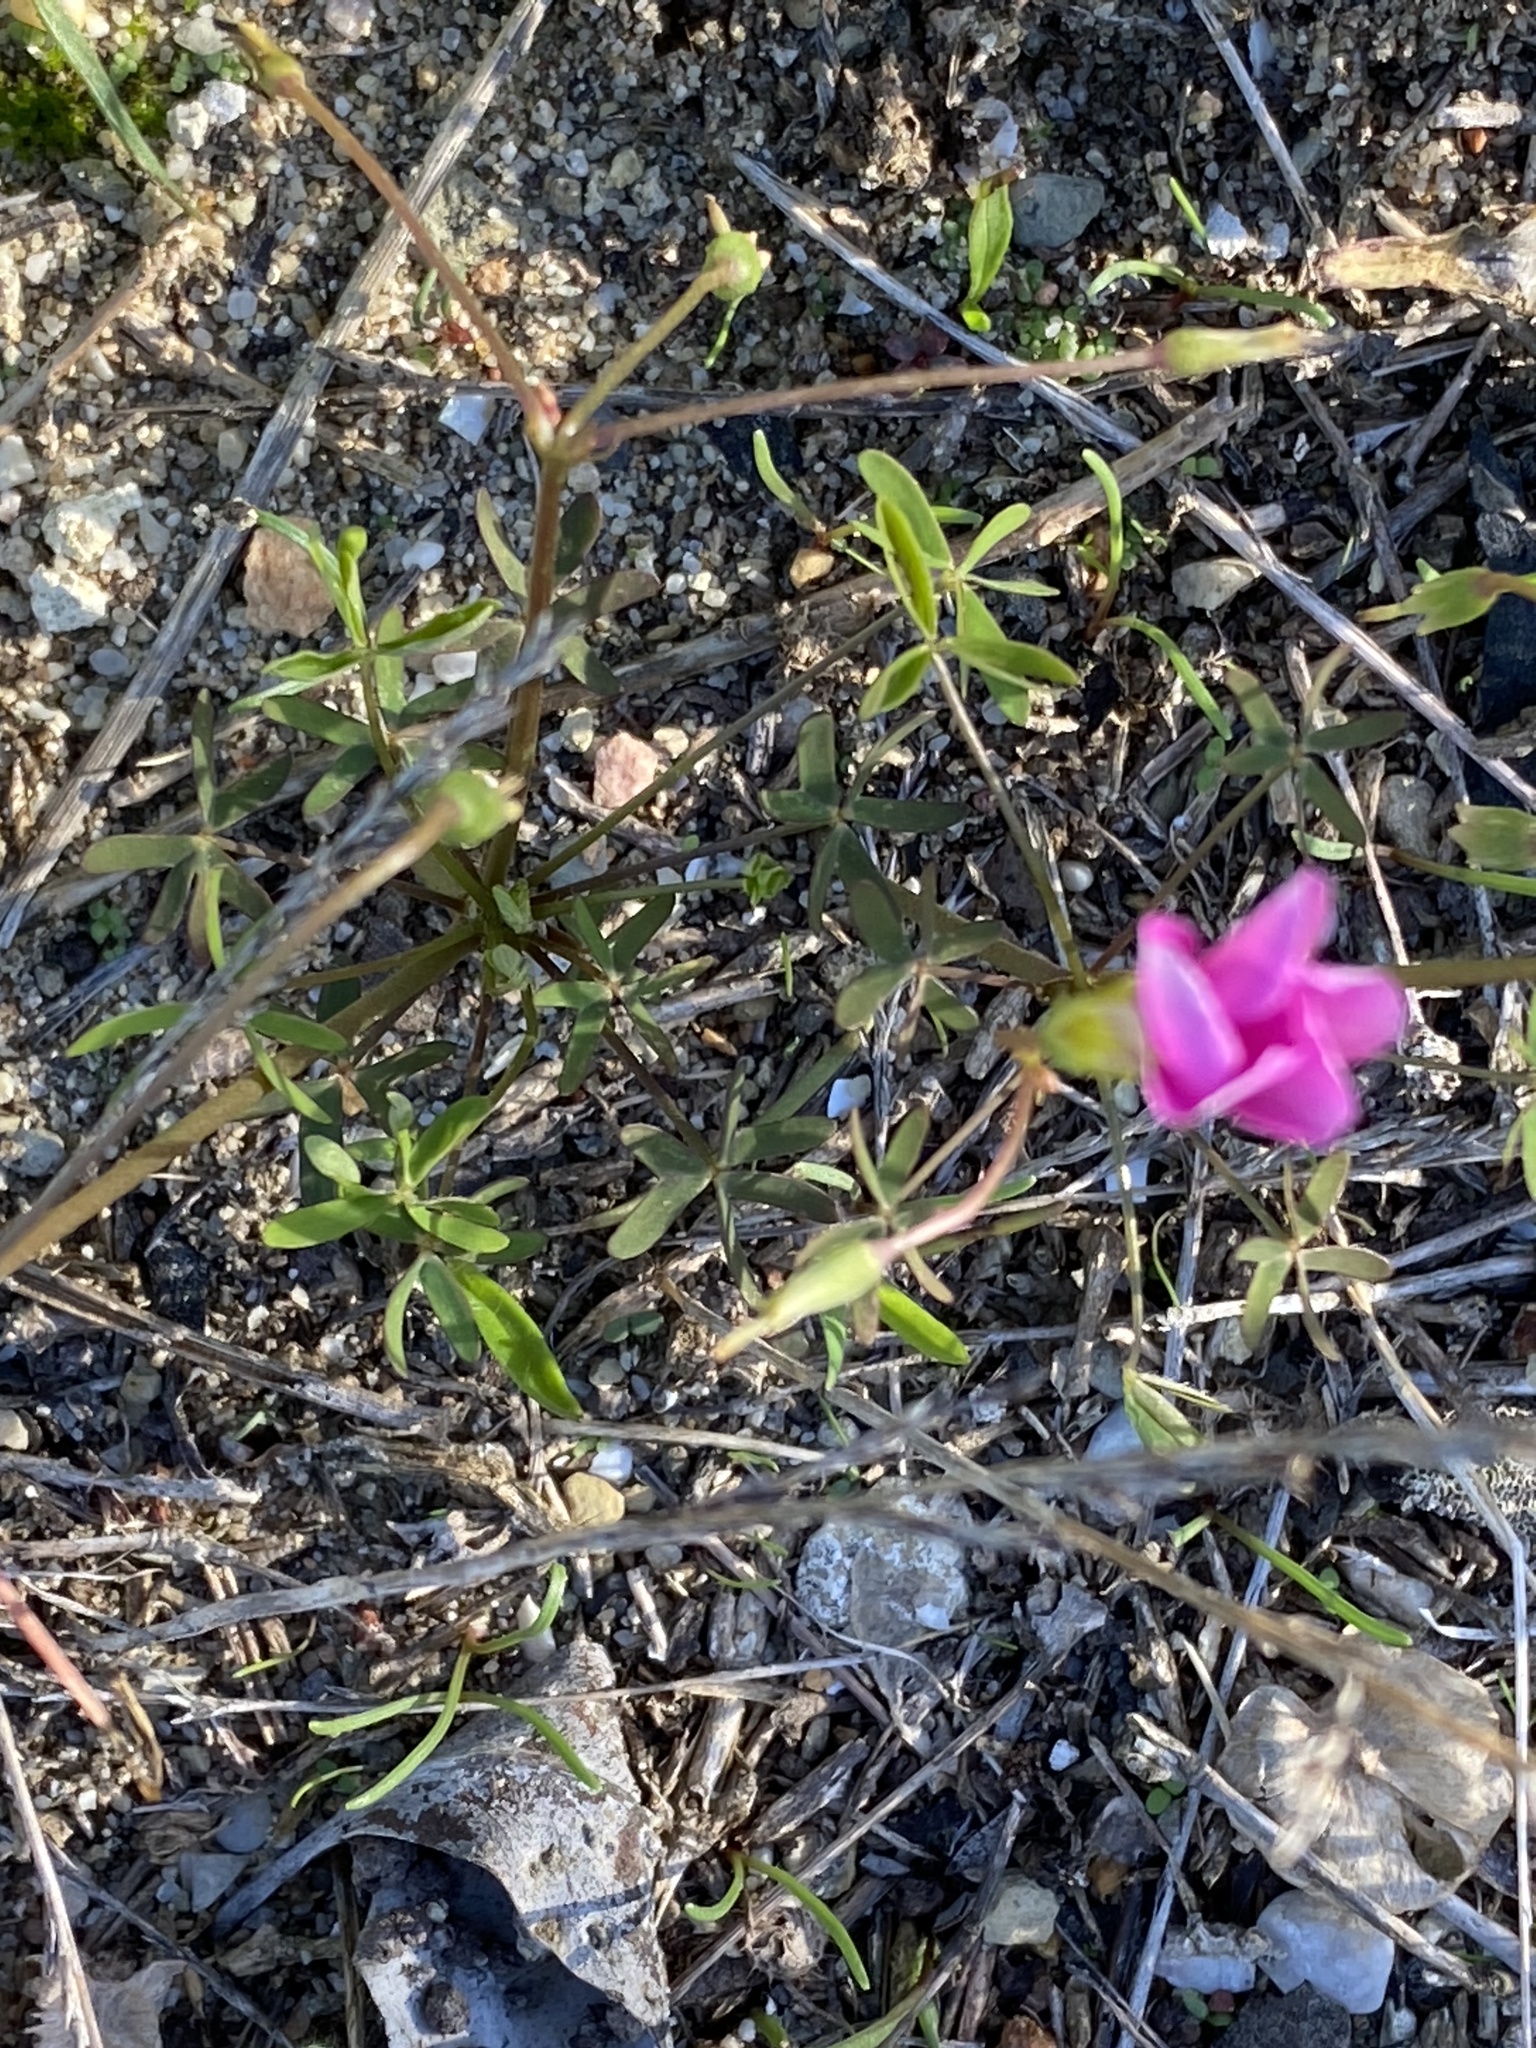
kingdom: Plantae
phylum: Tracheophyta
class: Magnoliopsida
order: Oxalidales
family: Oxalidaceae
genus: Oxalis
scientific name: Oxalis stellata
